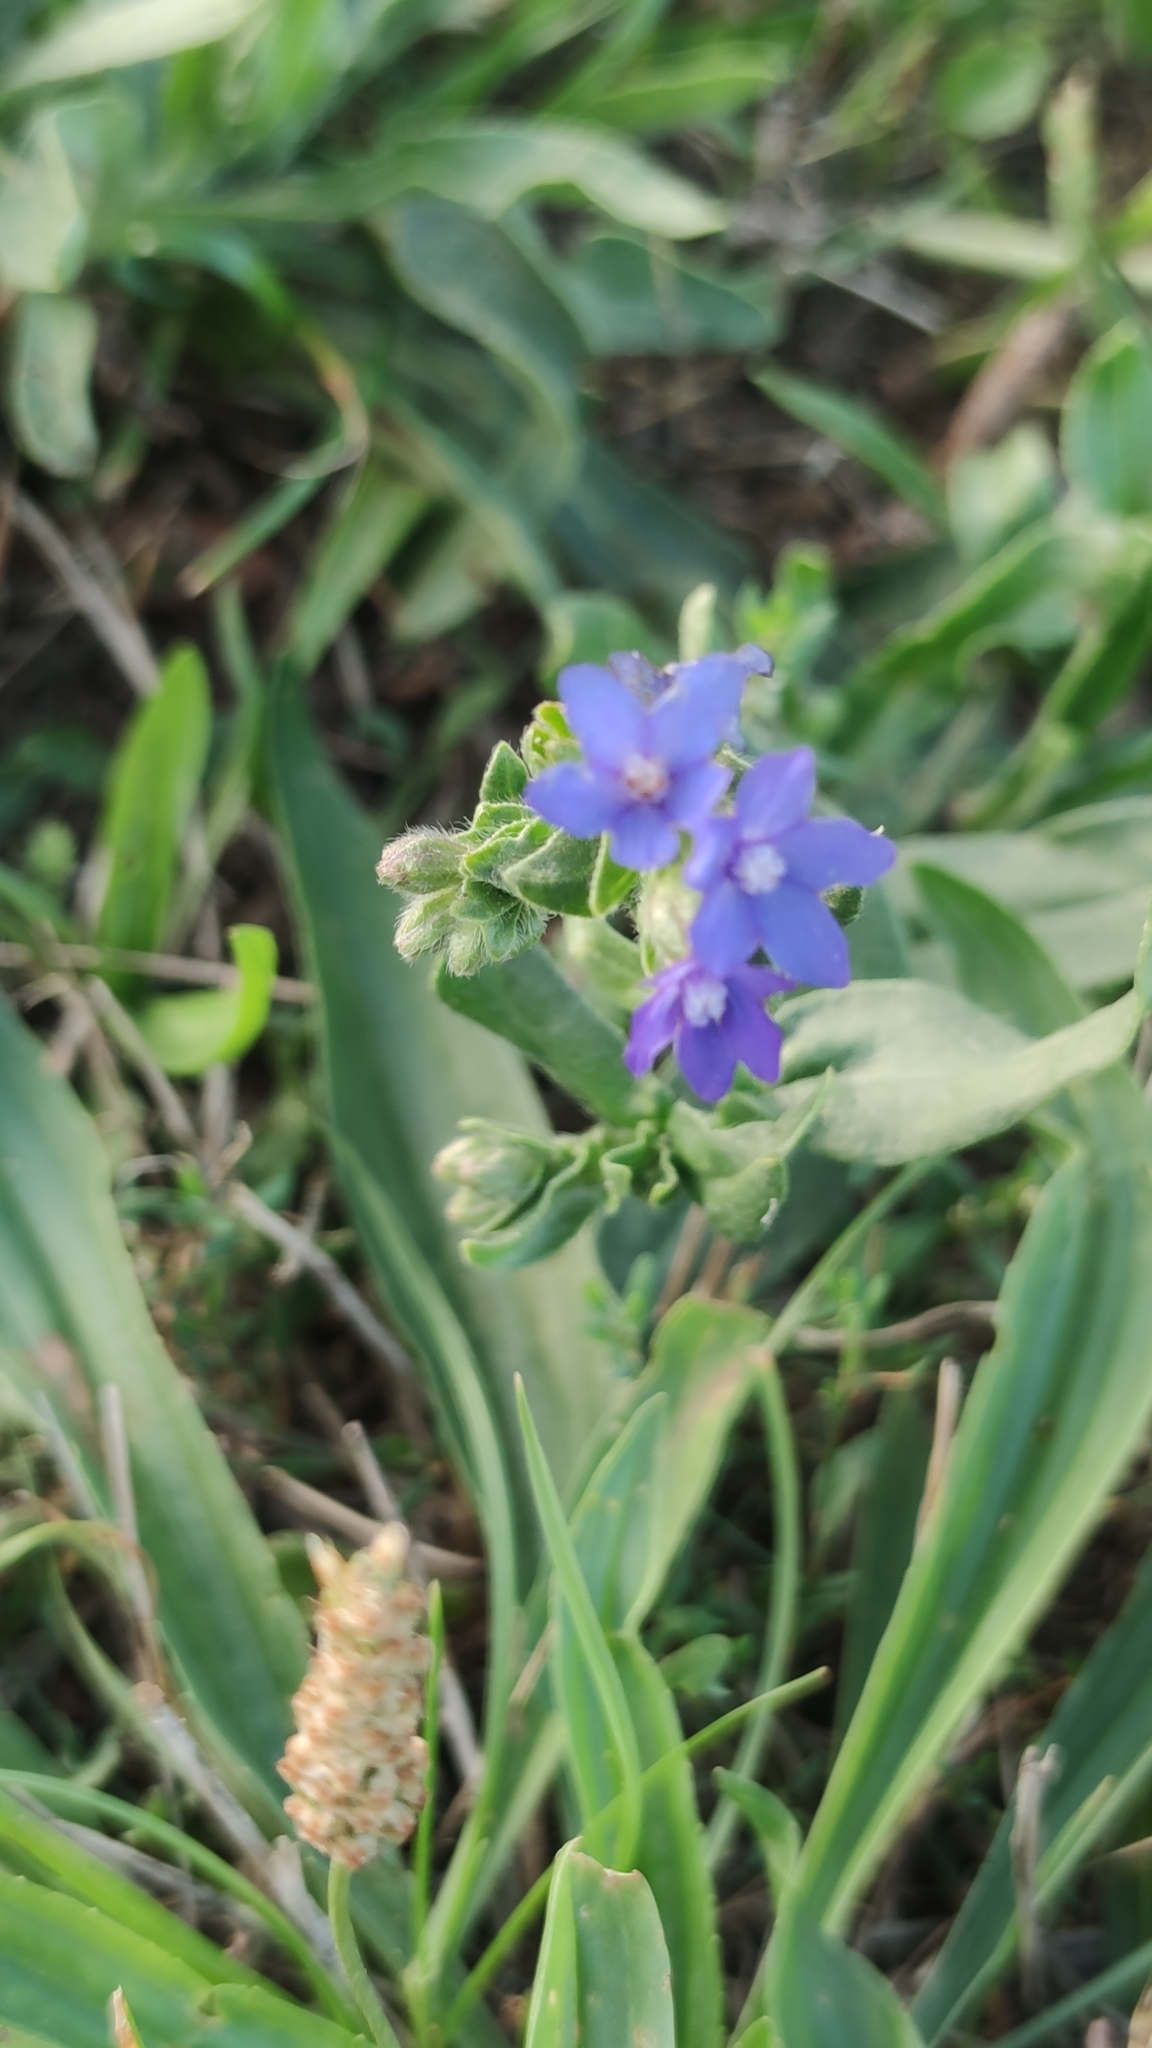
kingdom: Plantae
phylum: Tracheophyta
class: Magnoliopsida
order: Boraginales
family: Boraginaceae
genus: Anchusa
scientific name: Anchusa officinalis
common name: Alkanet
